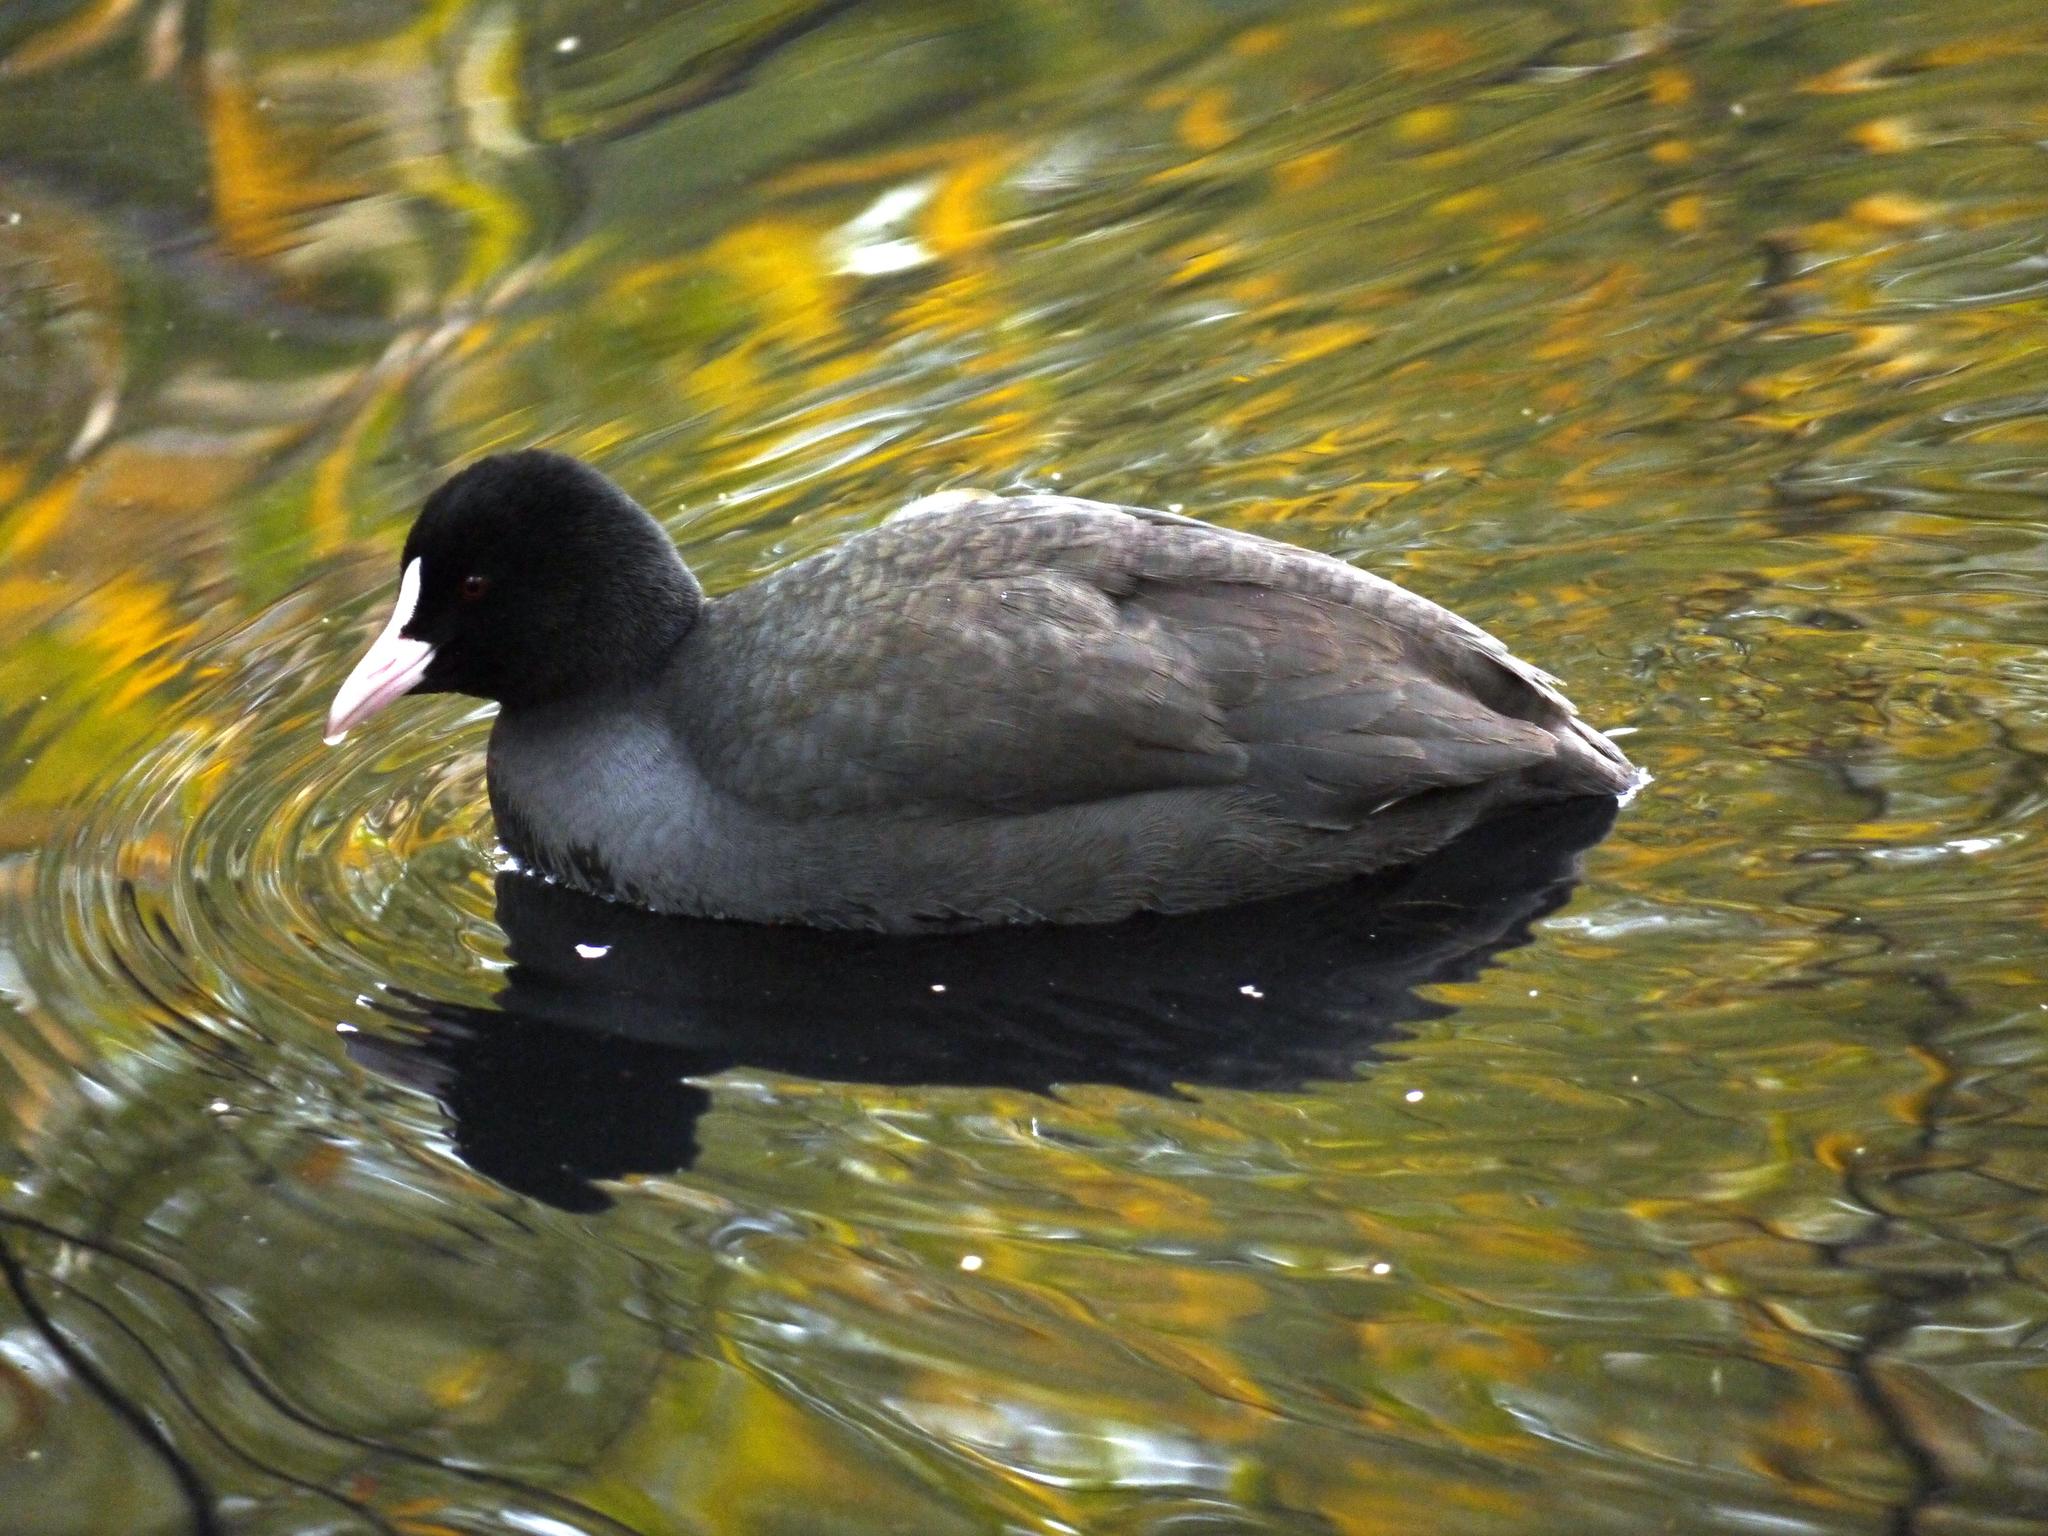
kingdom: Animalia
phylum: Chordata
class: Aves
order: Gruiformes
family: Rallidae
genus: Fulica
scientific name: Fulica atra
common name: Eurasian coot
